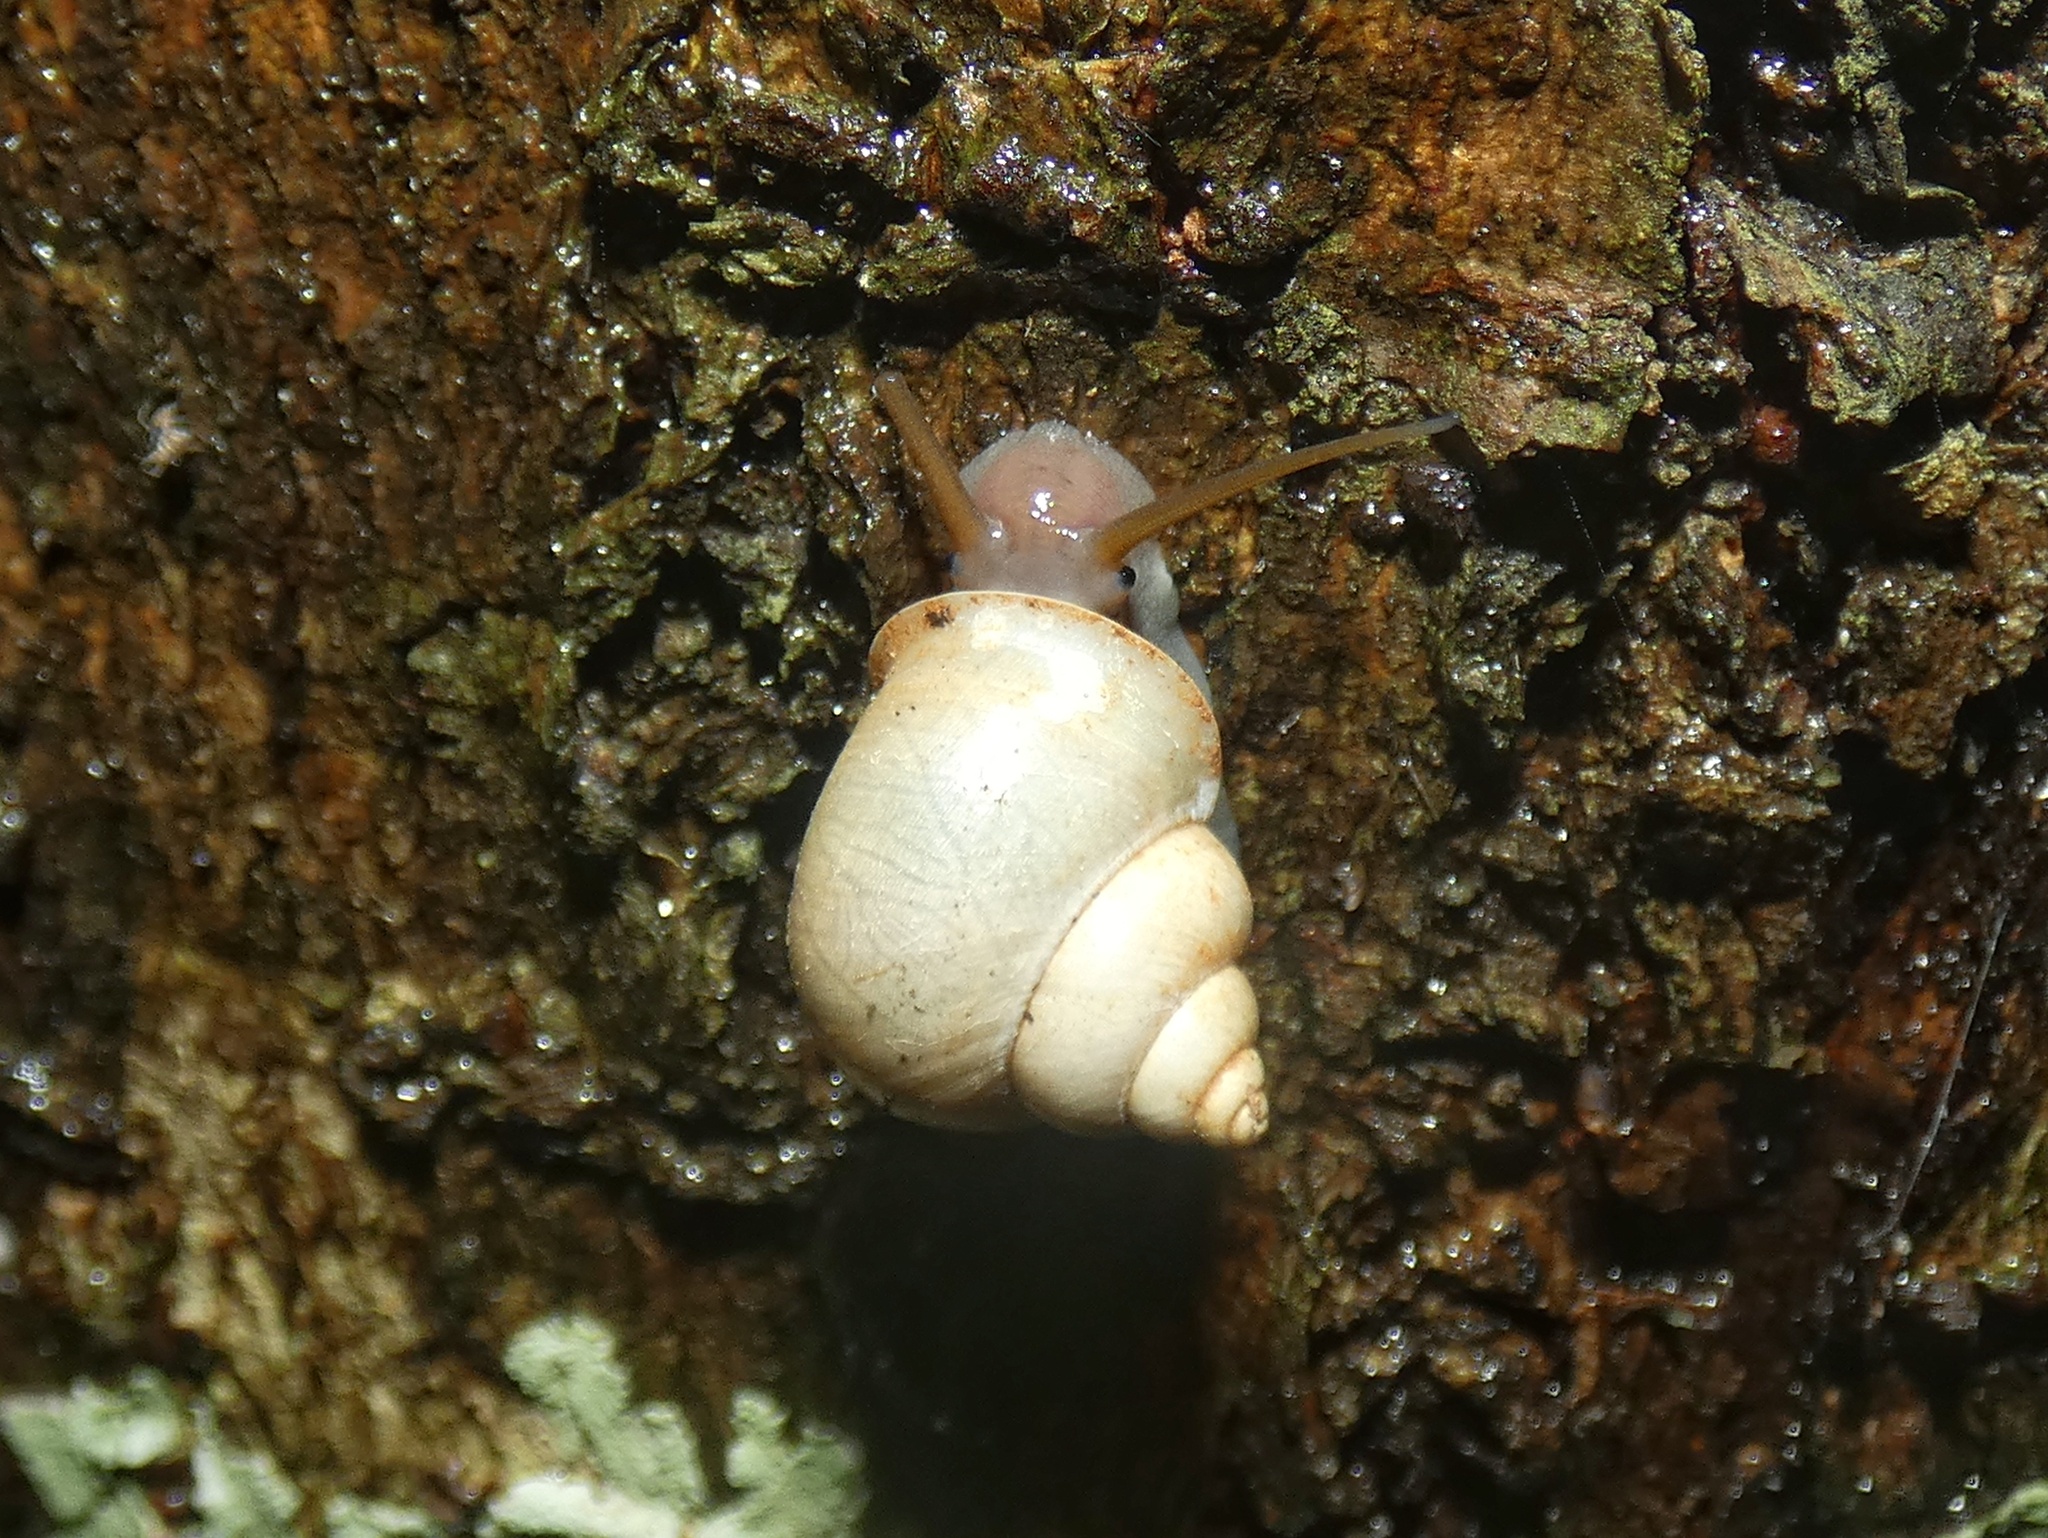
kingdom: Animalia
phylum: Mollusca
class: Gastropoda
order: Architaenioglossa
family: Cyclophoridae
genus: Leptopoma
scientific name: Leptopoma perlucidum
